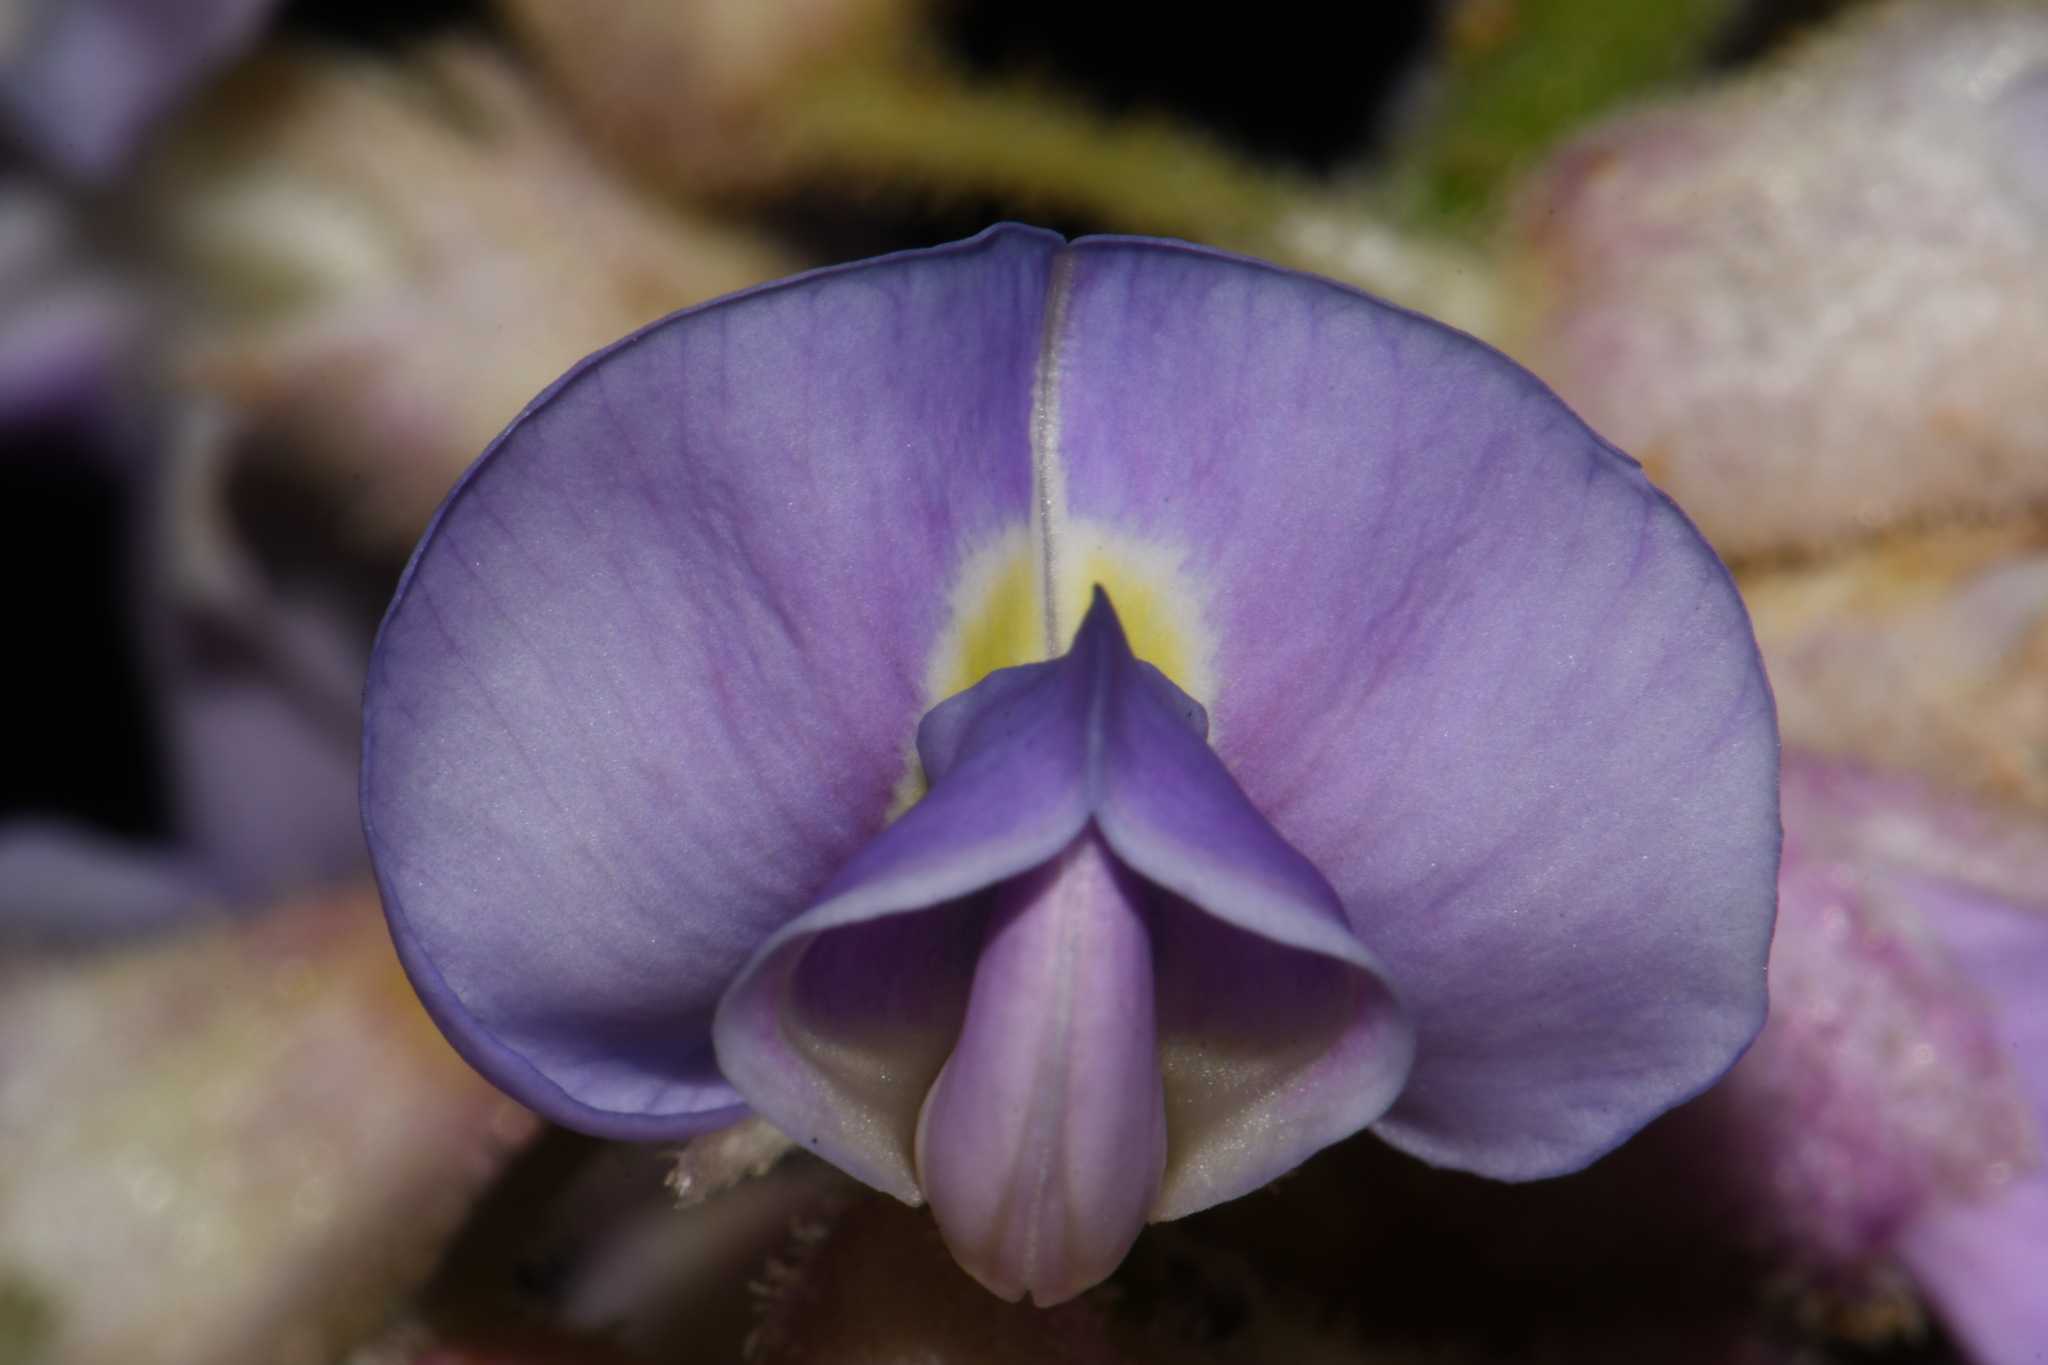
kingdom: Plantae
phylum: Tracheophyta
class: Magnoliopsida
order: Fabales
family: Fabaceae
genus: Wisteria
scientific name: Wisteria frutescens
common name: American wisteria
